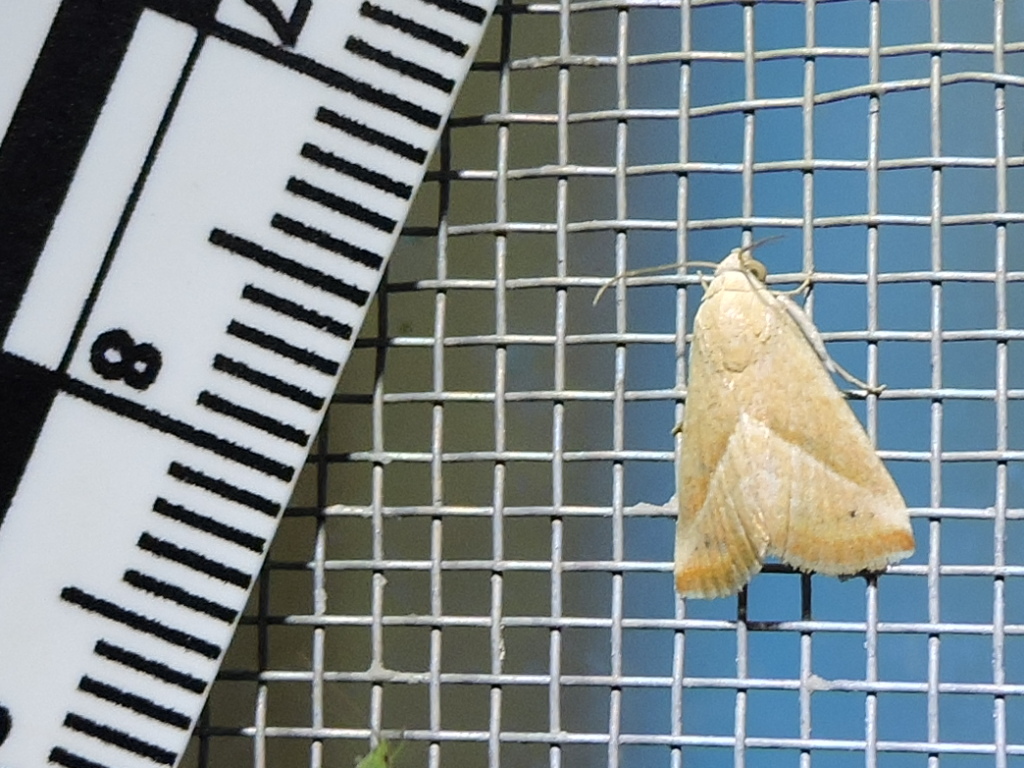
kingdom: Animalia
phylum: Arthropoda
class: Insecta
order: Lepidoptera
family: Noctuidae
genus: Eublemma
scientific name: Eublemma recta
